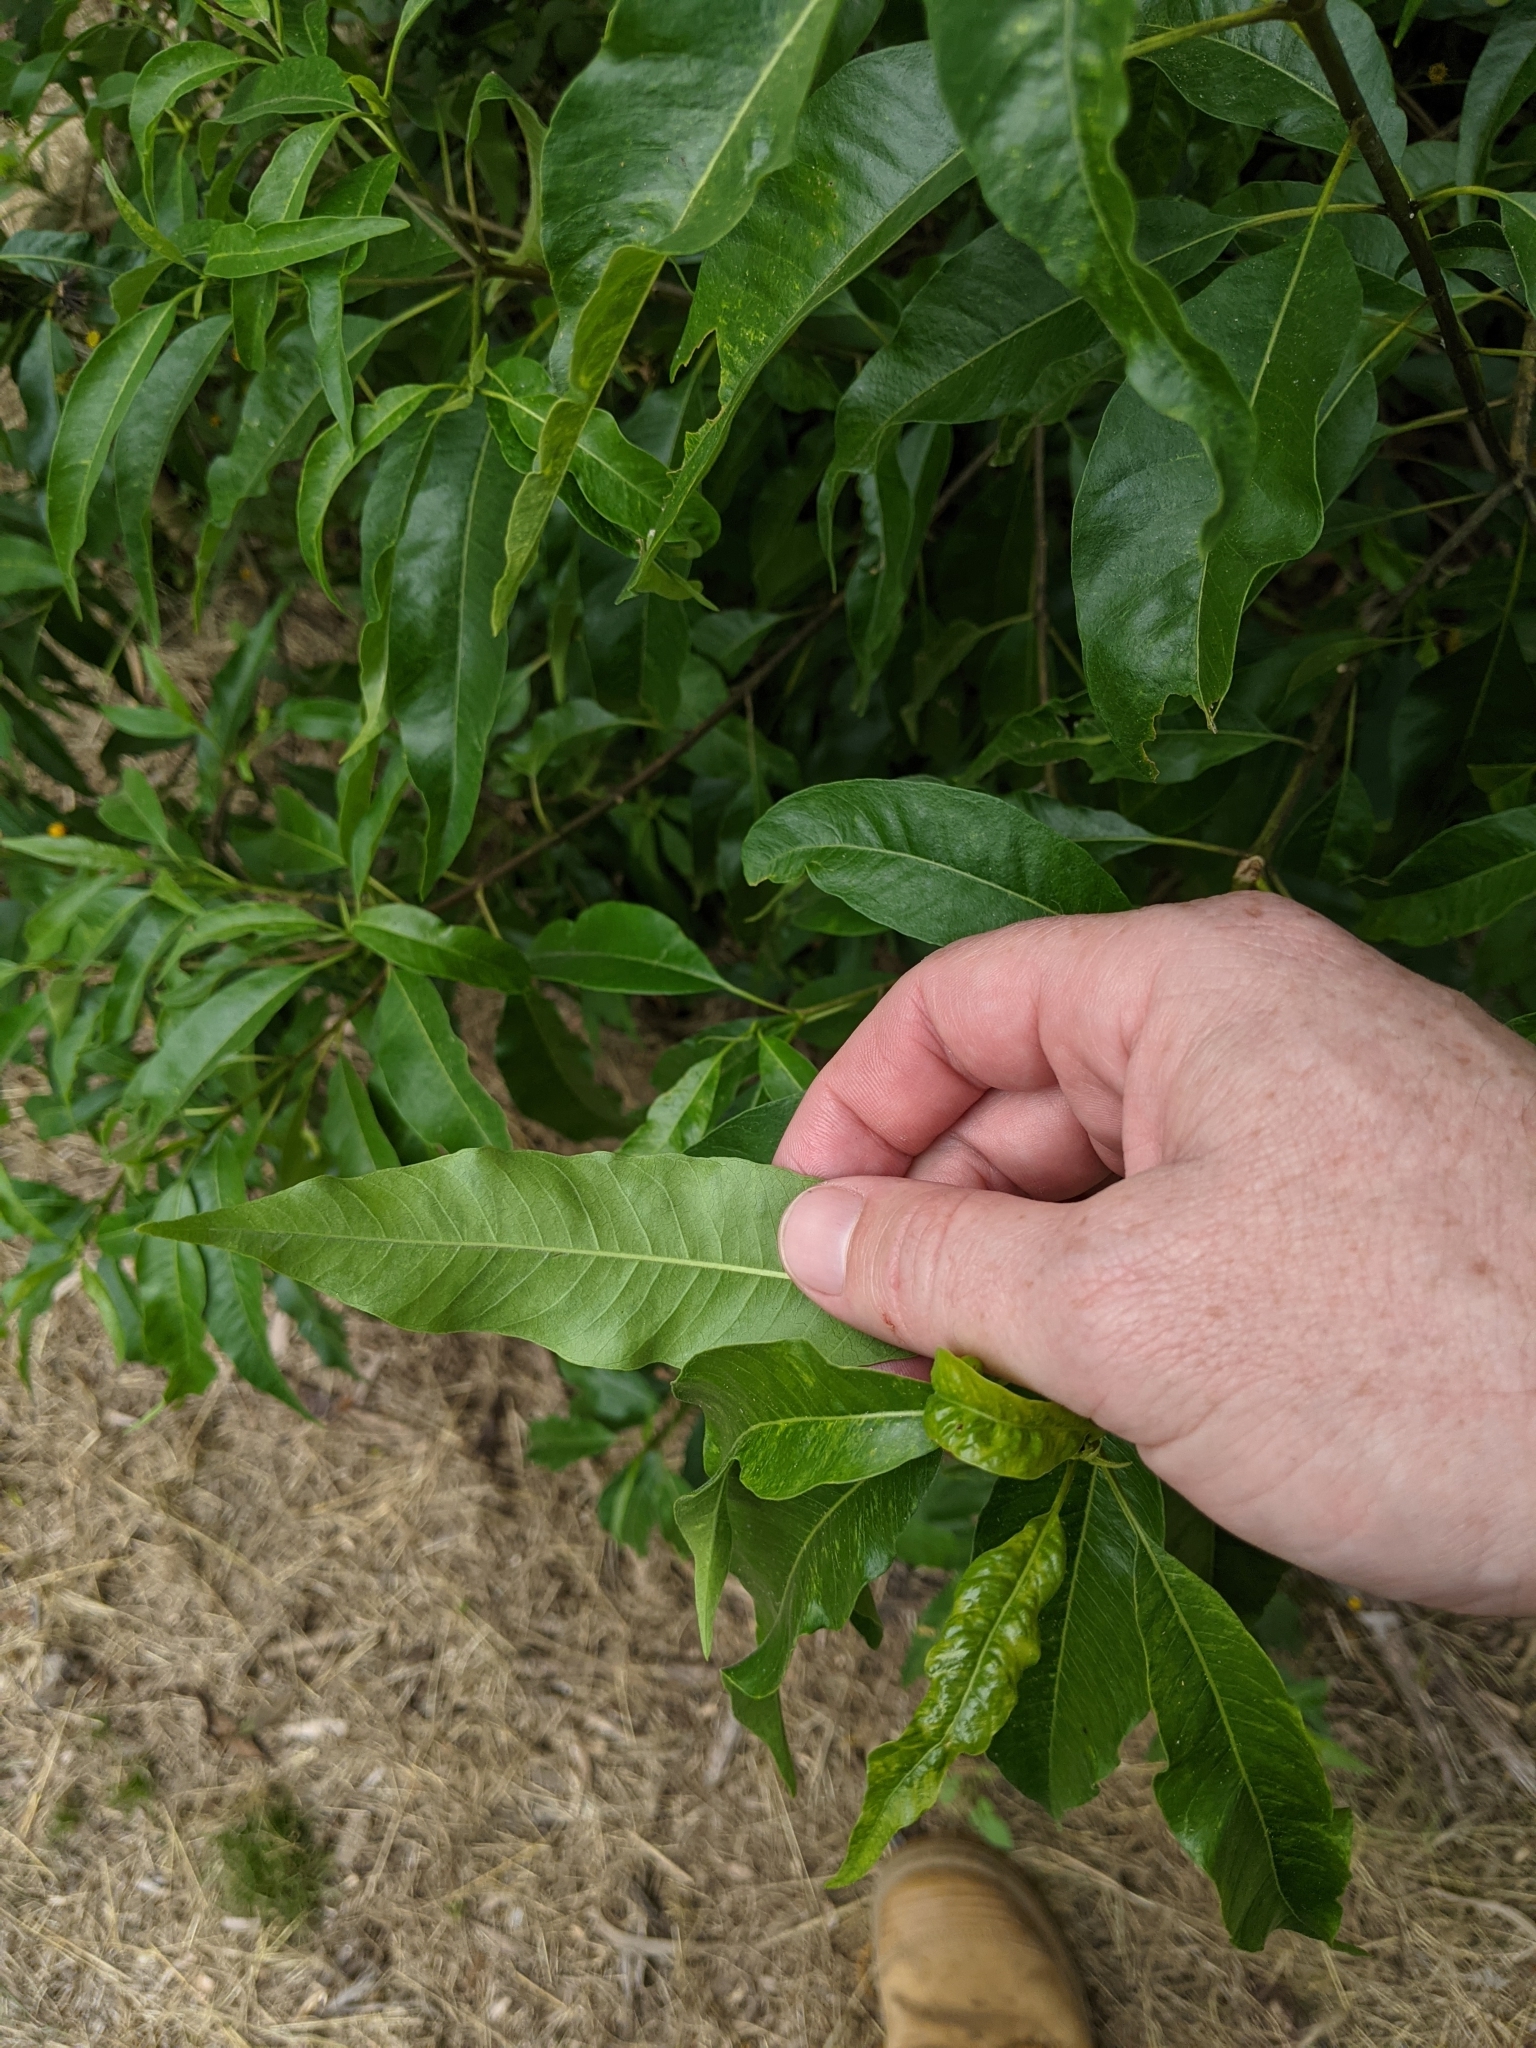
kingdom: Plantae
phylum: Tracheophyta
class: Magnoliopsida
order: Gentianales
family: Apocynaceae
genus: Alstonia
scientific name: Alstonia mollis
